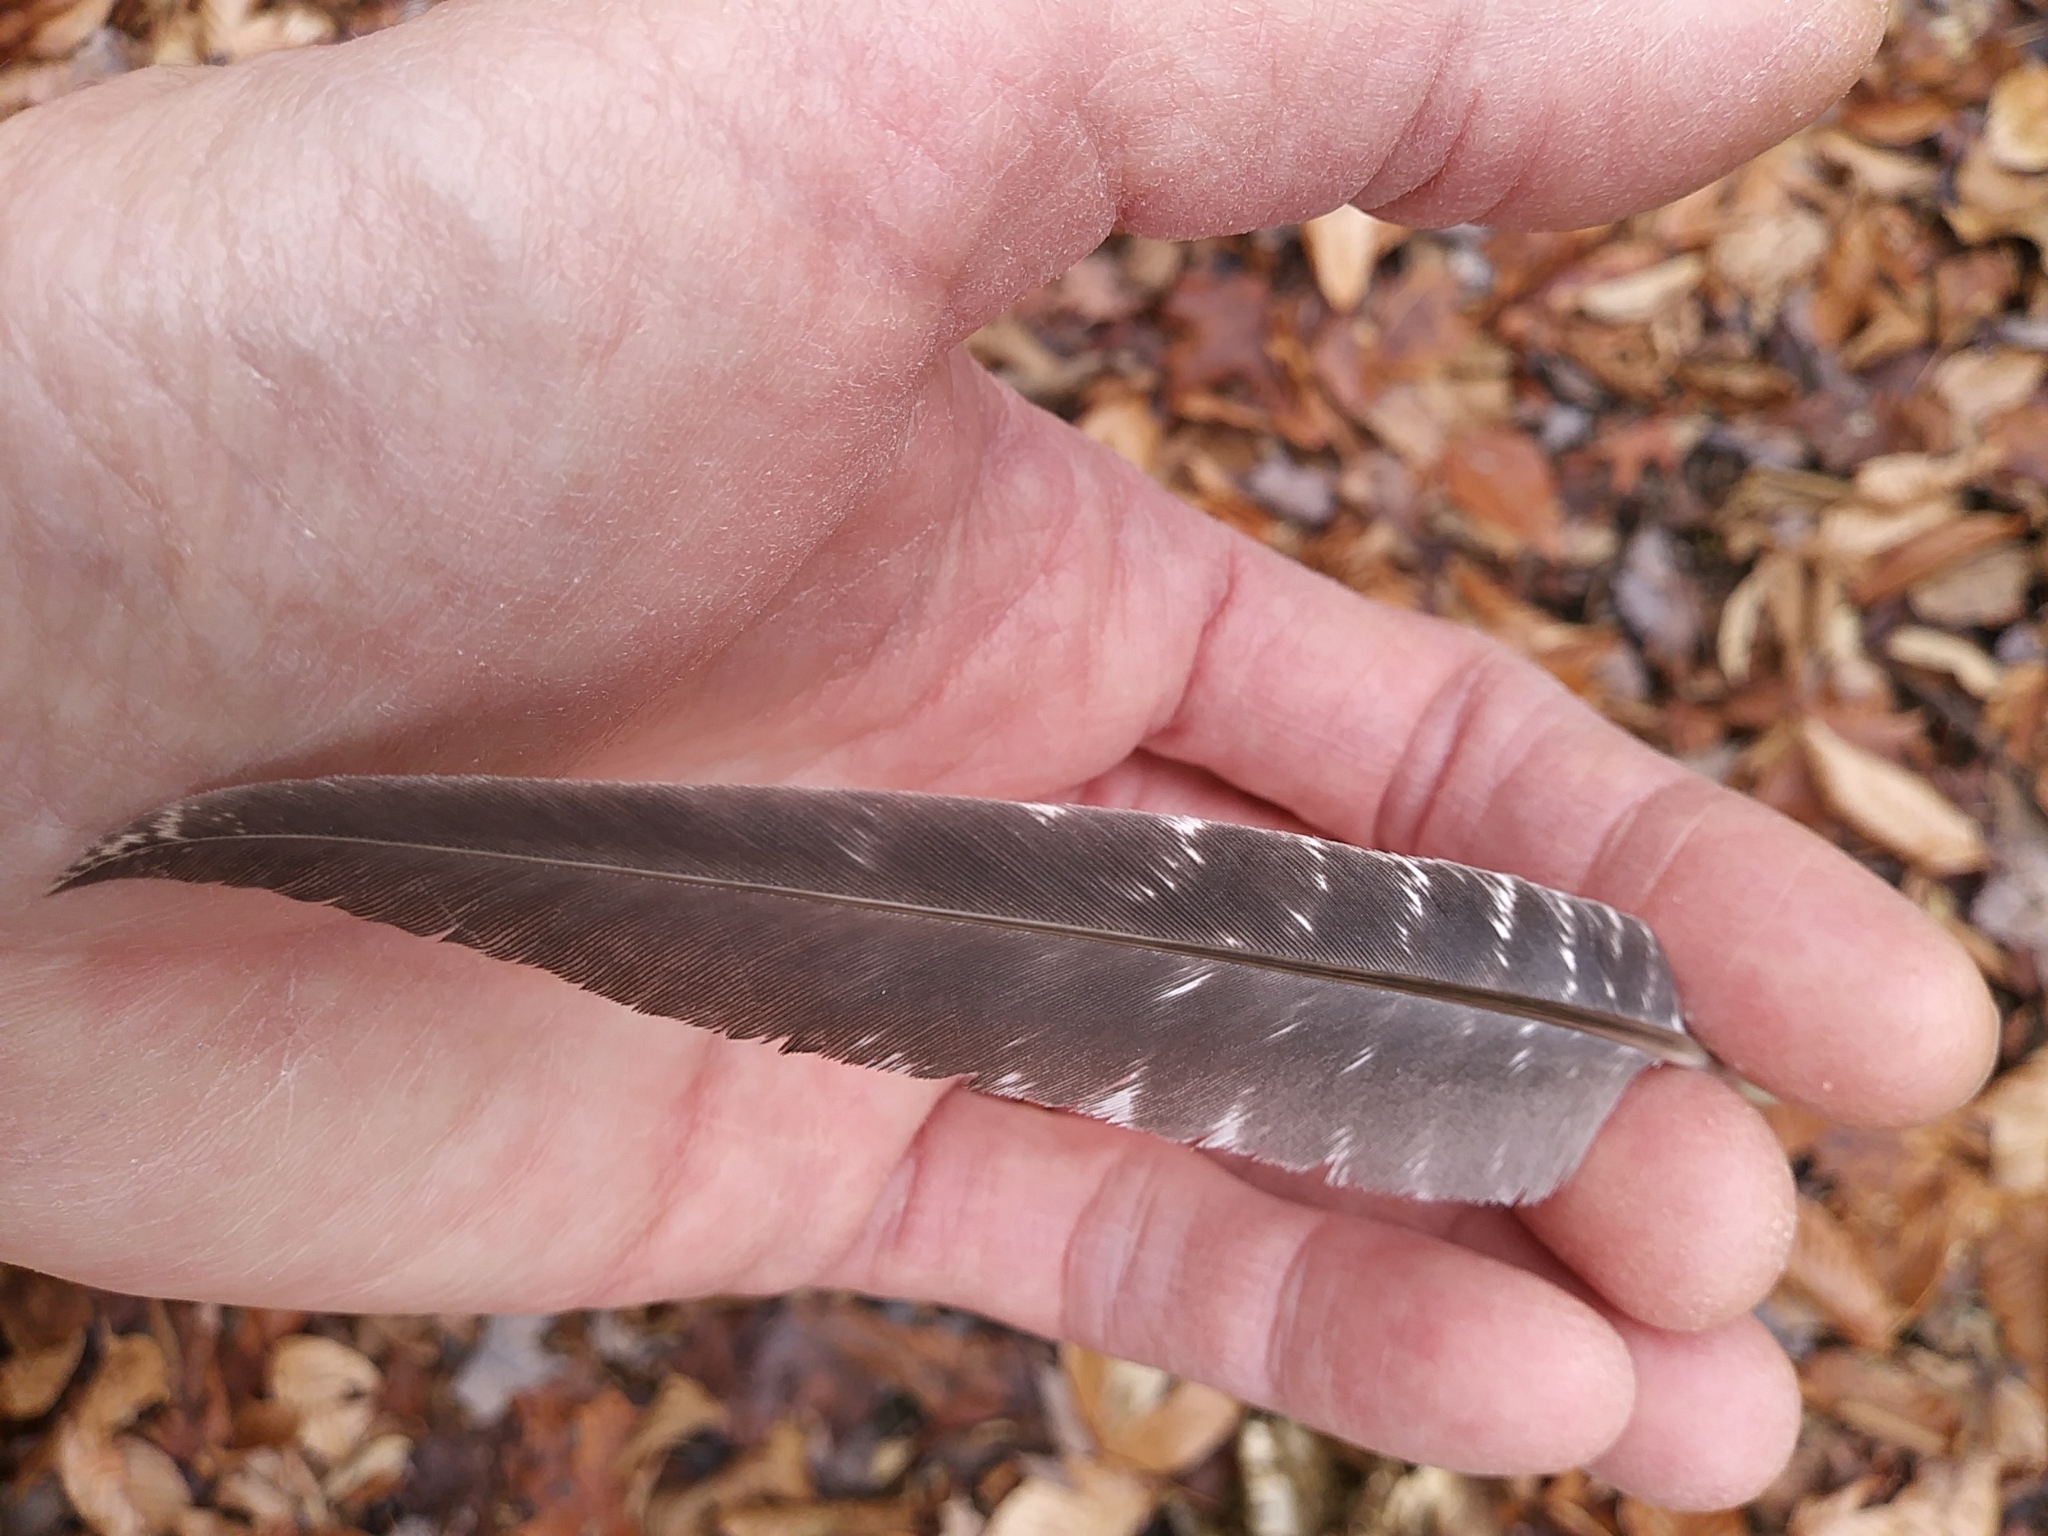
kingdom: Animalia
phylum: Chordata
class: Aves
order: Galliformes
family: Phasianidae
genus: Meleagris
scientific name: Meleagris gallopavo
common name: Wild turkey
